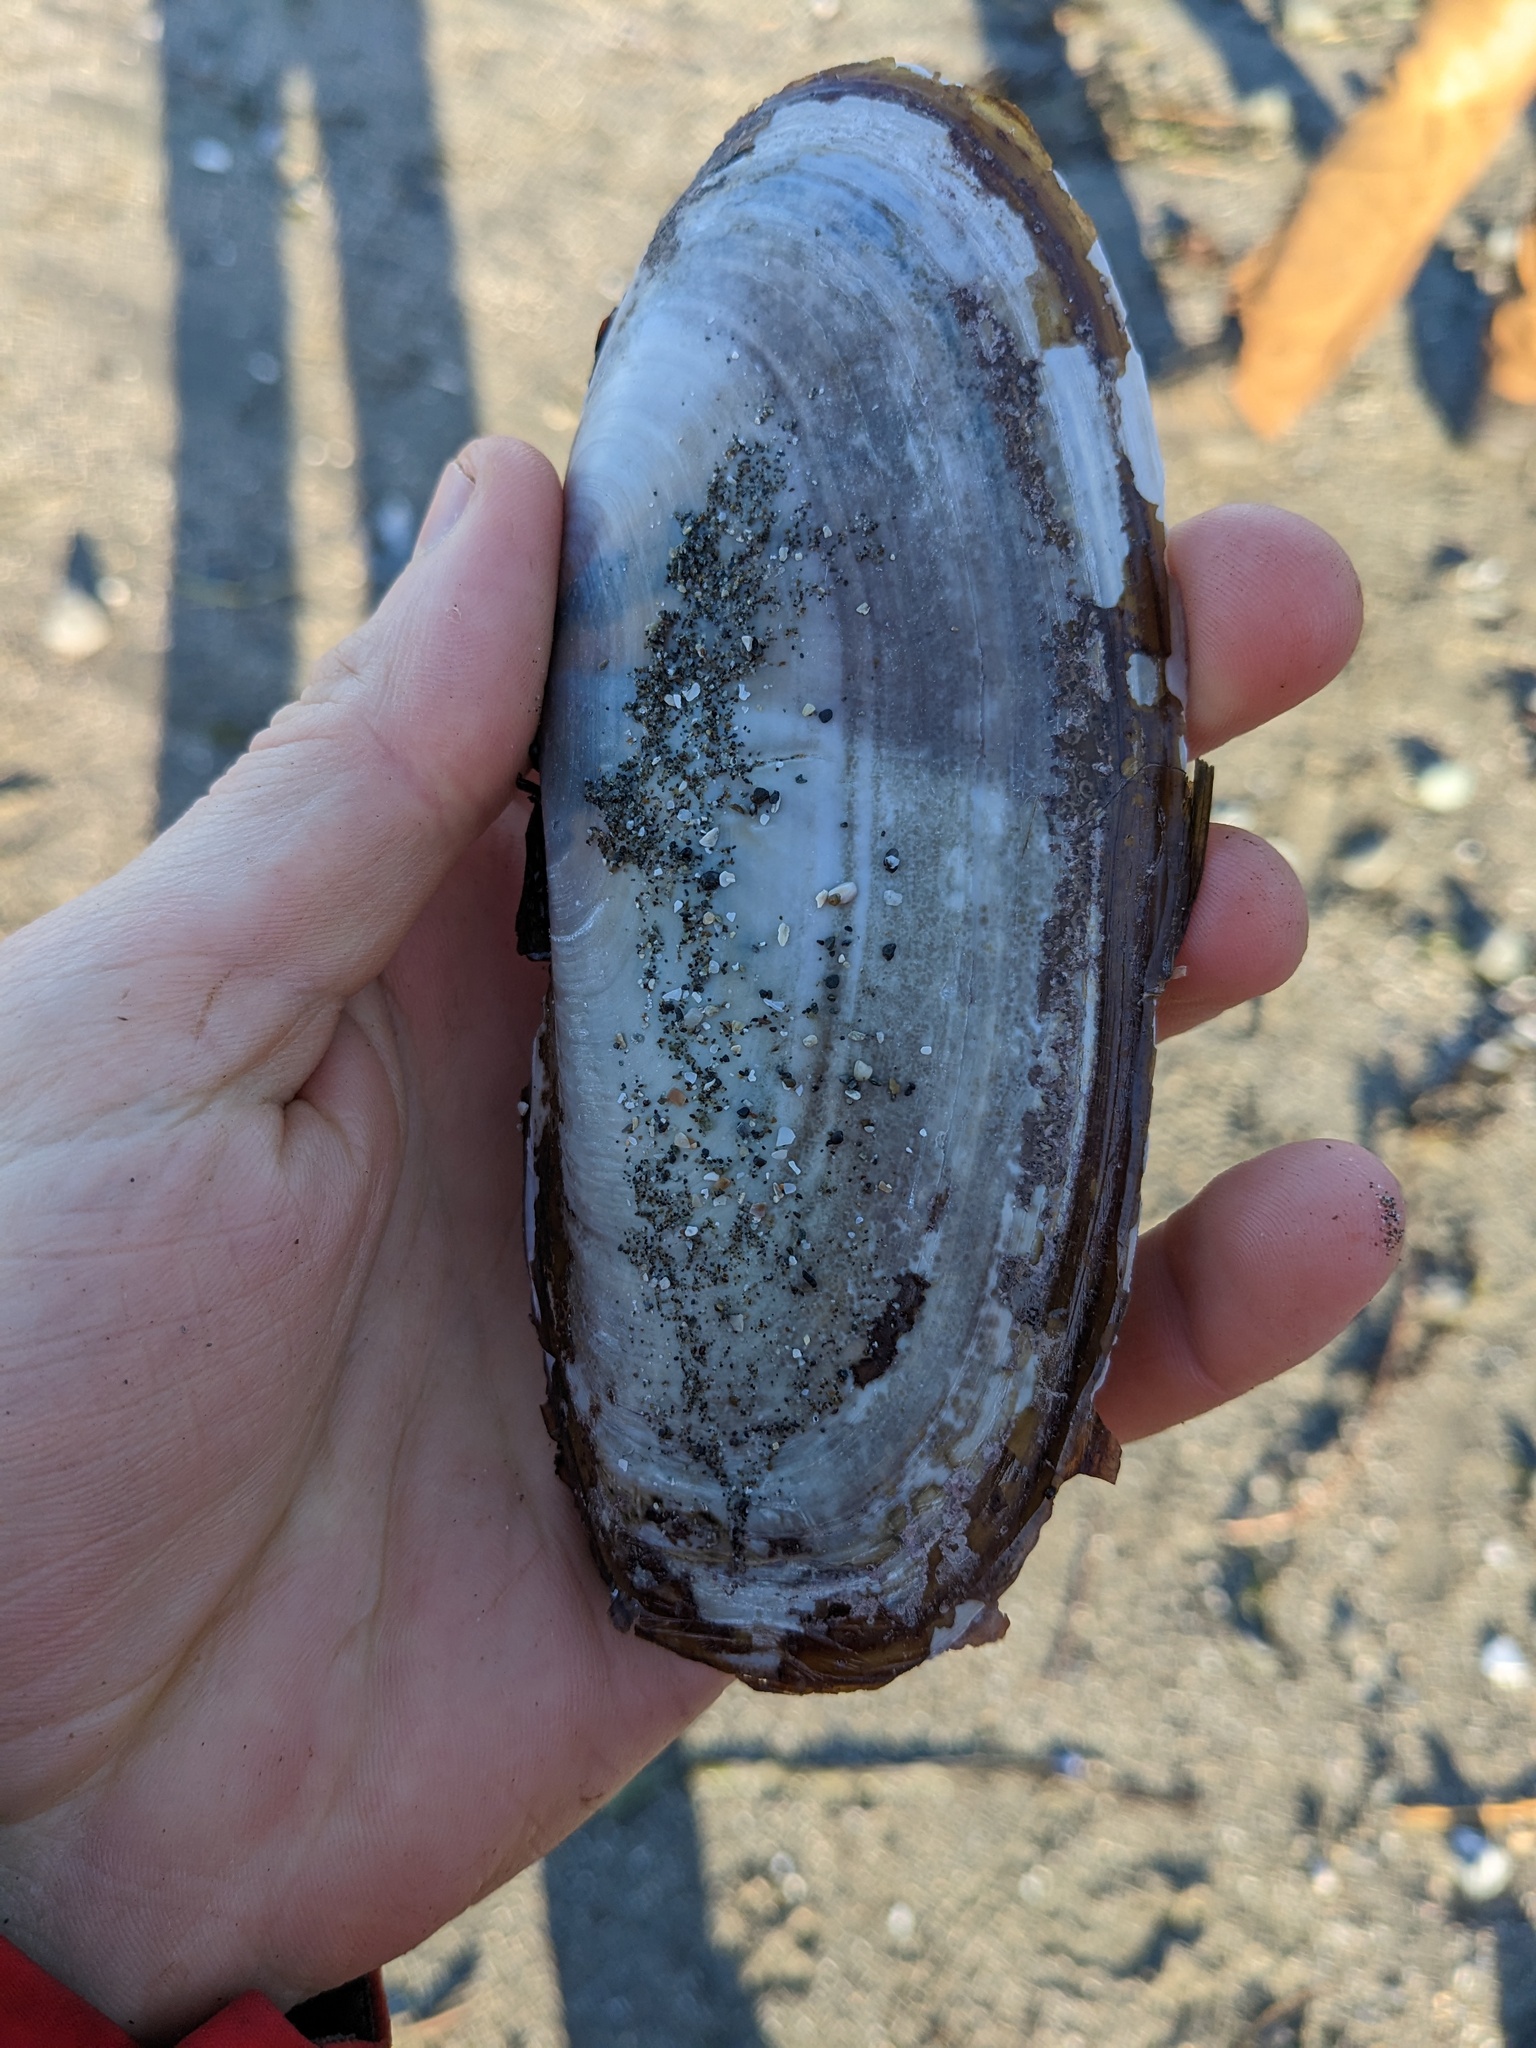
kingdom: Animalia
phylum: Mollusca
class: Bivalvia
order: Adapedonta
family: Pharidae
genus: Siliqua
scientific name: Siliqua patula
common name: Pacific razor clam
